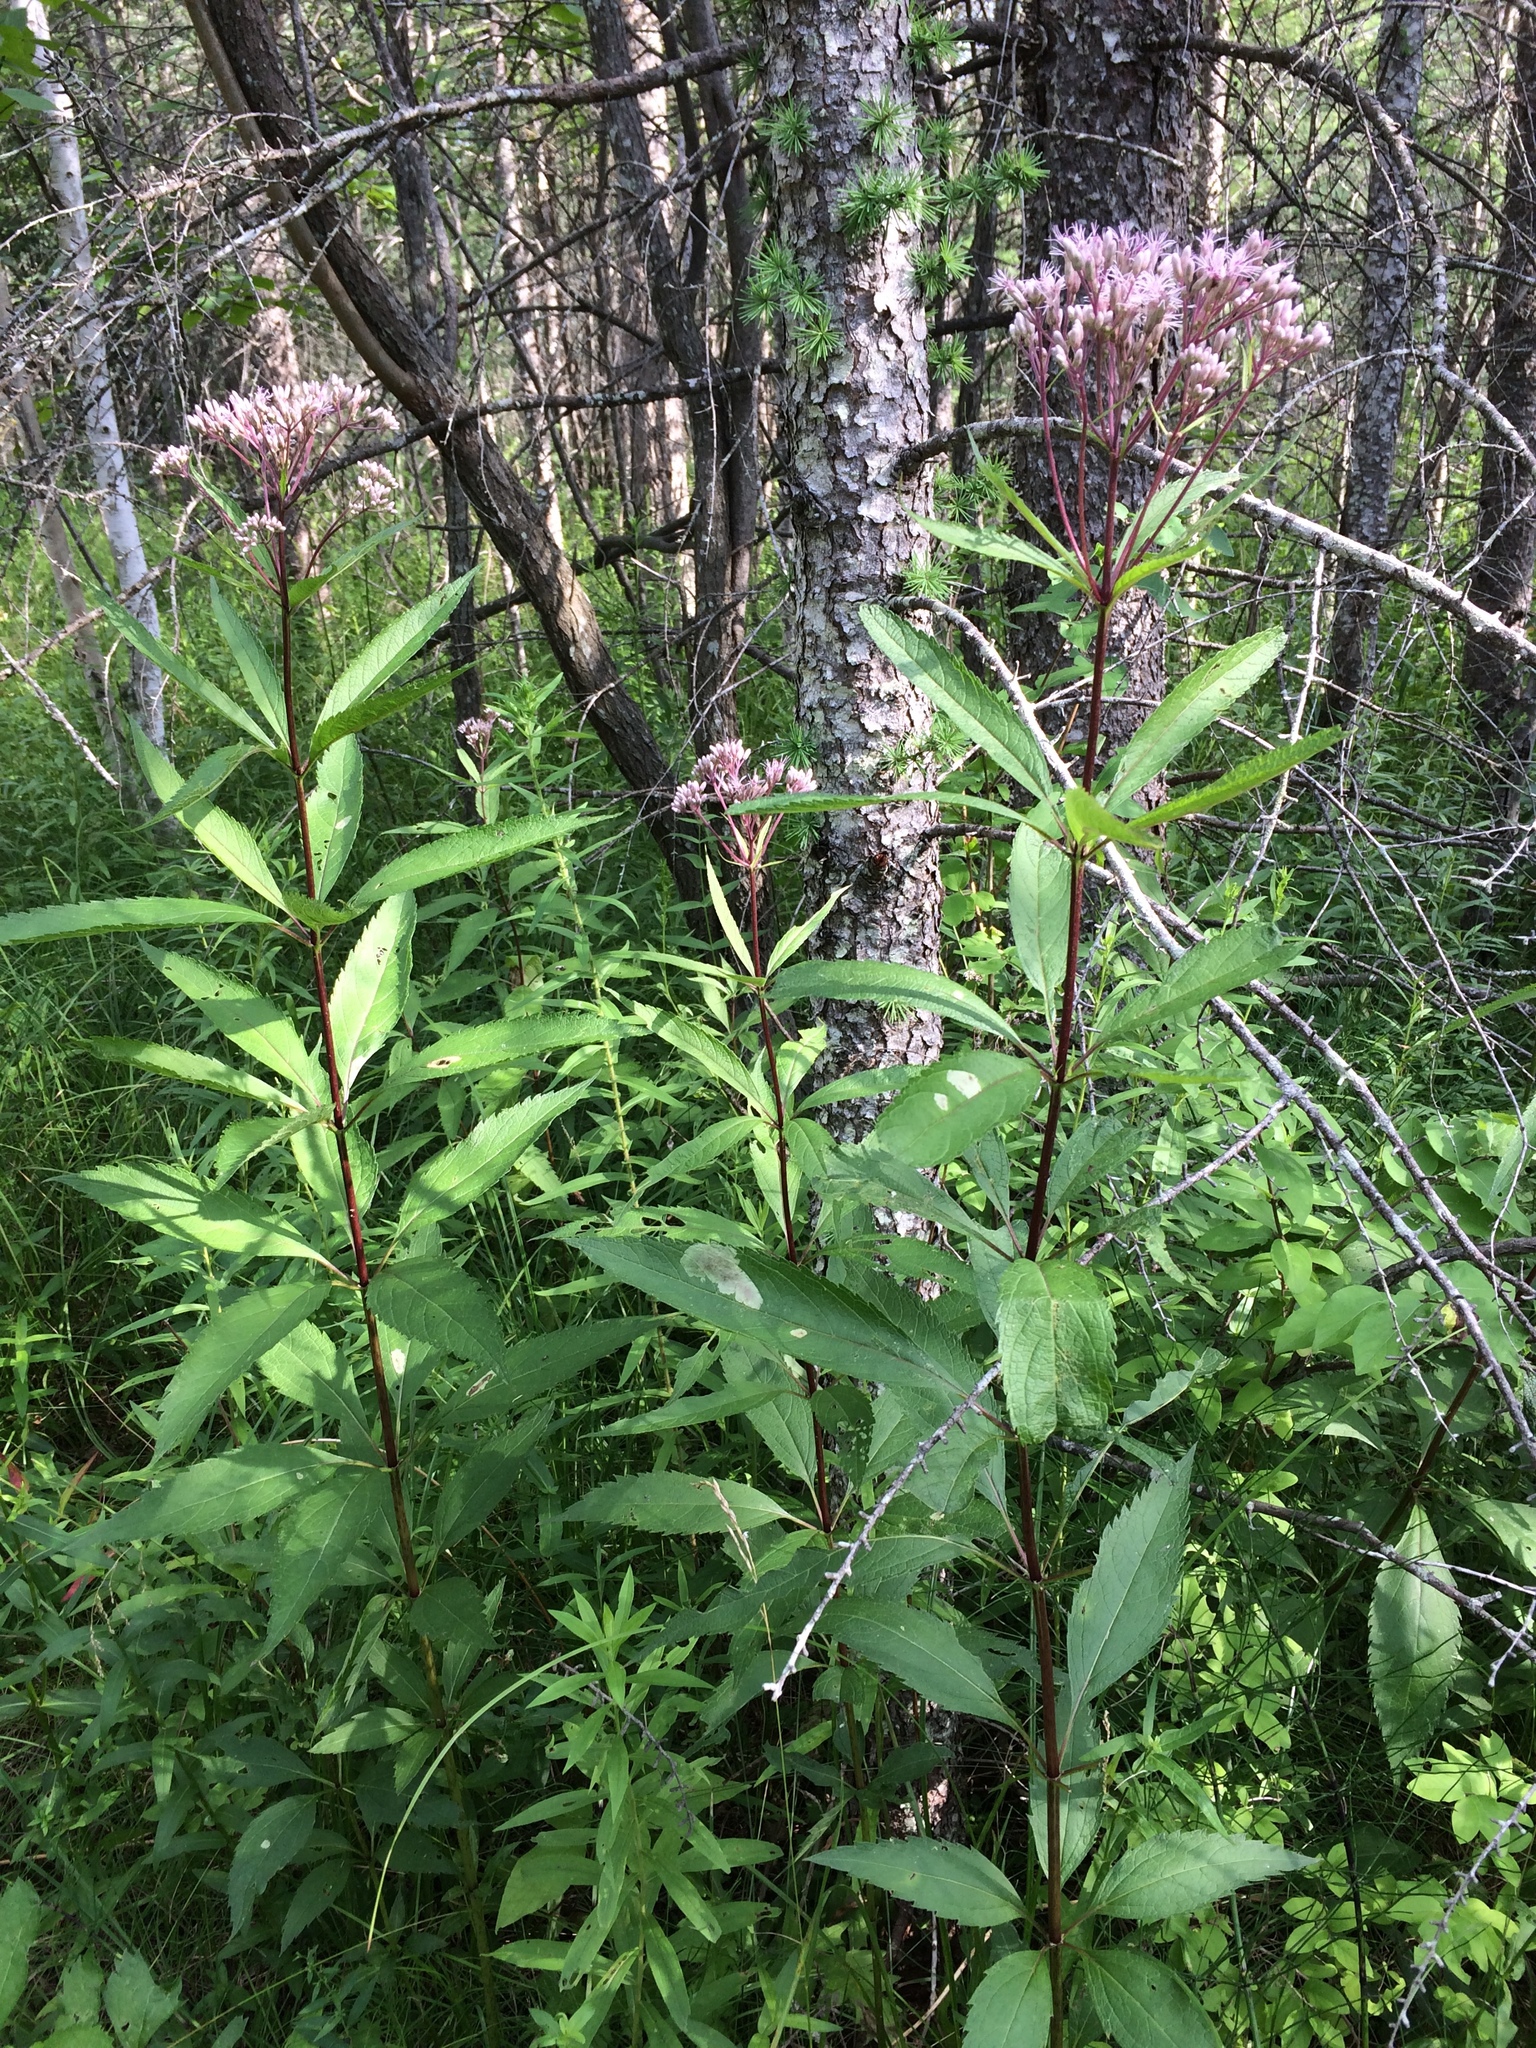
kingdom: Plantae
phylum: Tracheophyta
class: Magnoliopsida
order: Asterales
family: Asteraceae
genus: Eutrochium
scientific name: Eutrochium maculatum
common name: Spotted joe pye weed
